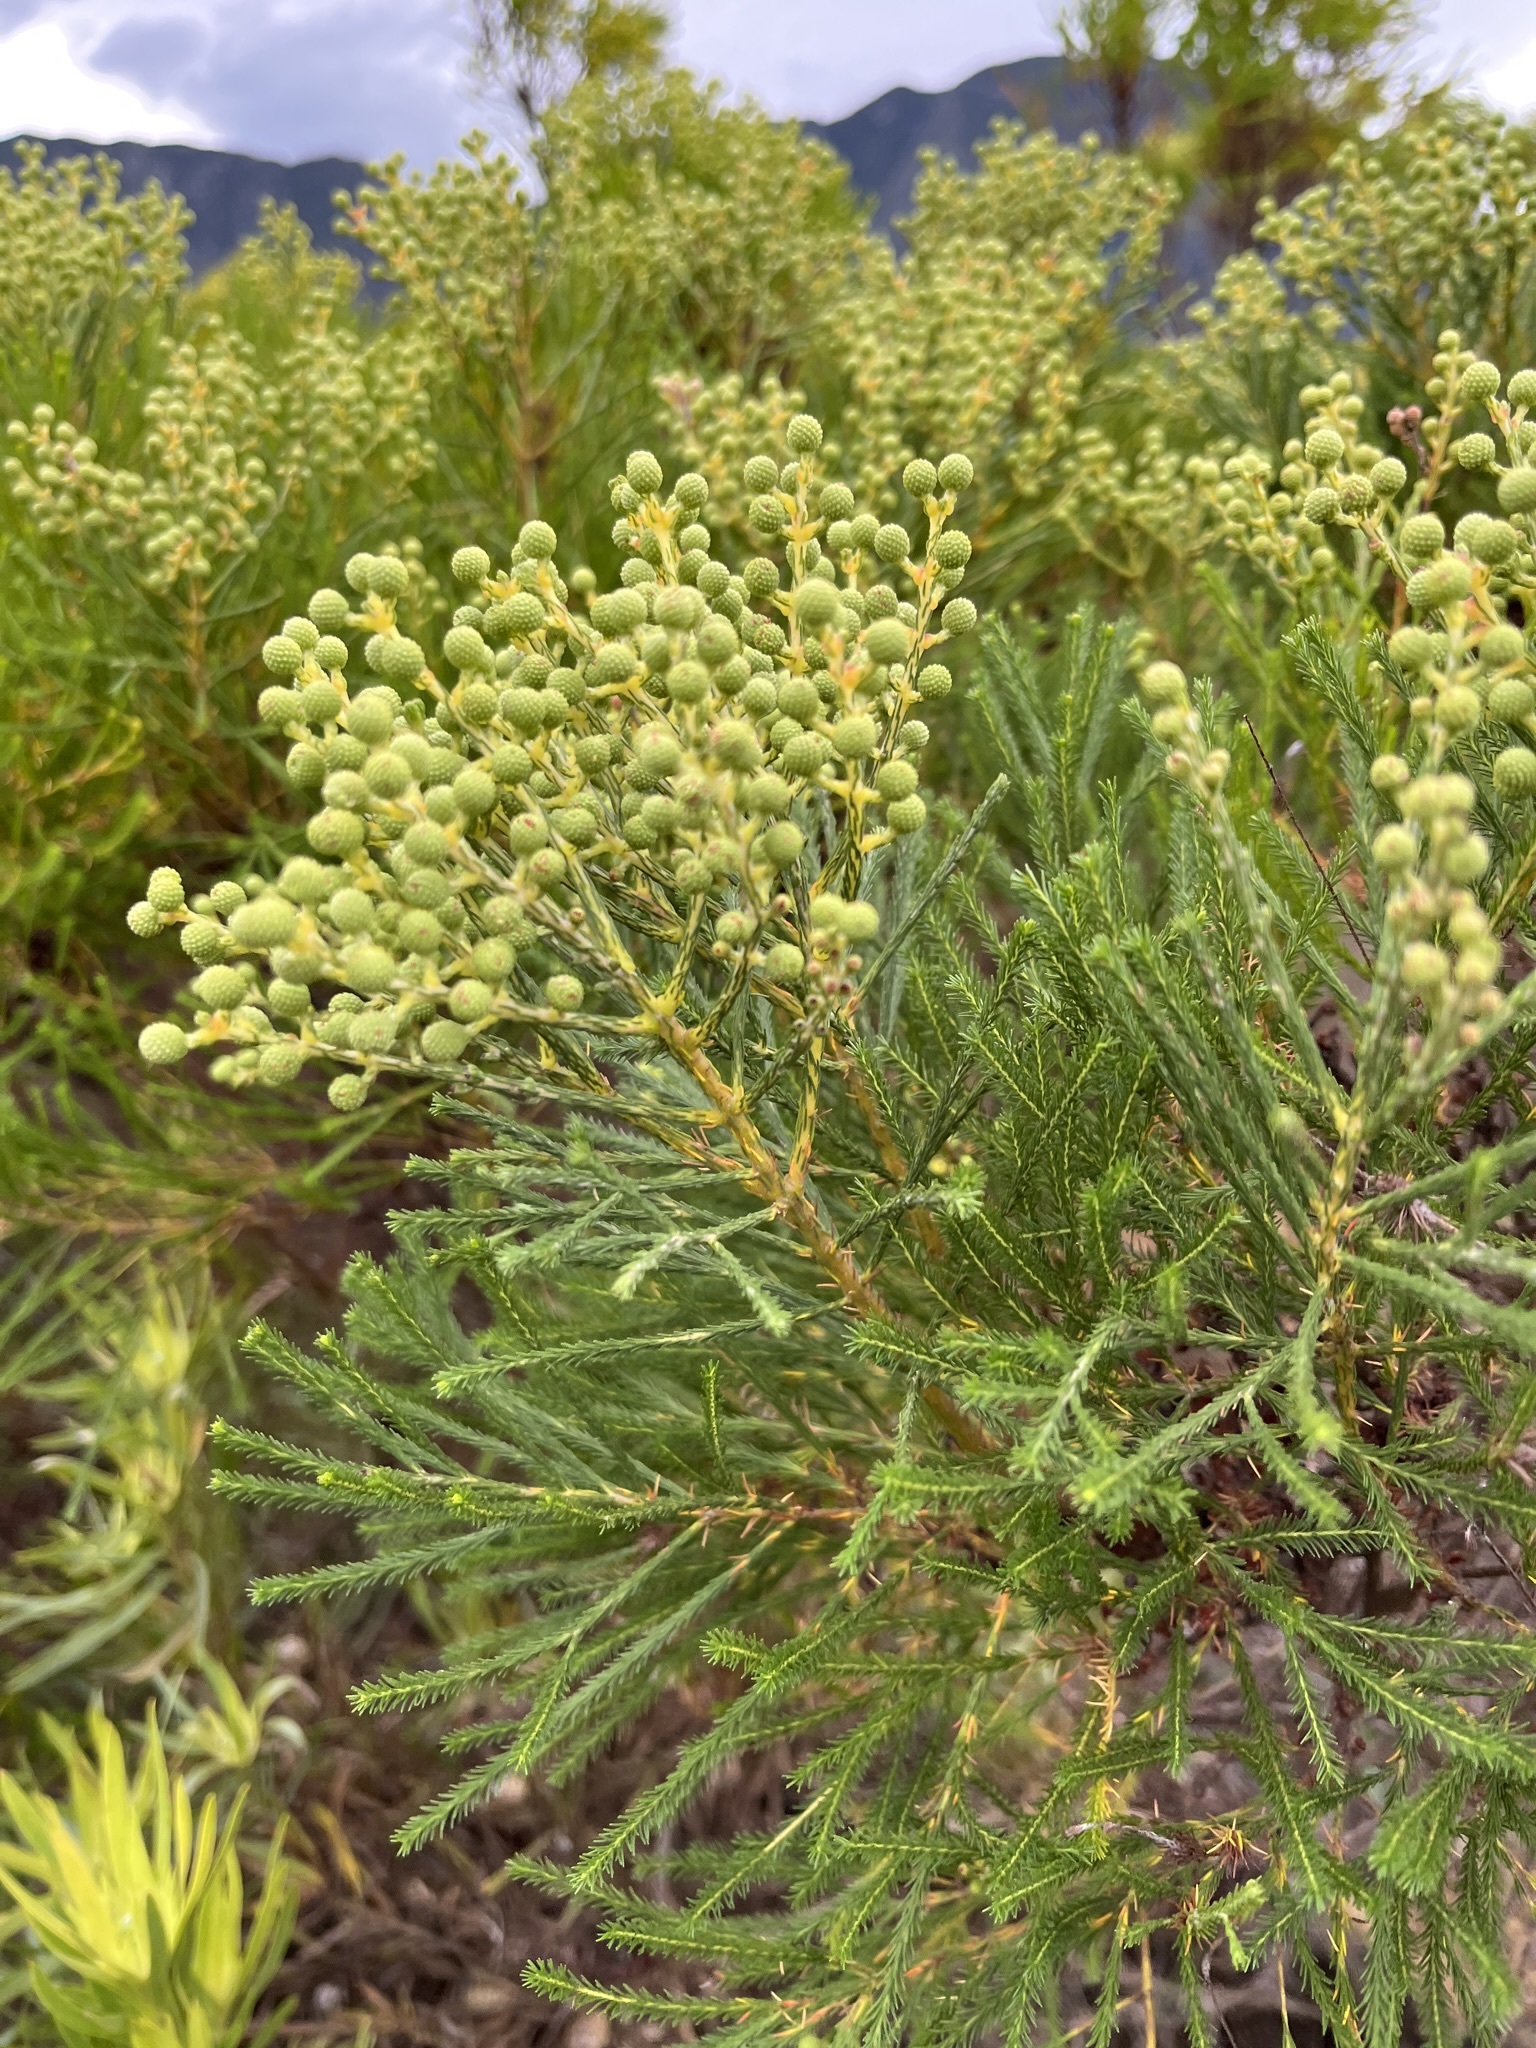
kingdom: Plantae
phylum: Tracheophyta
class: Magnoliopsida
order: Bruniales
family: Bruniaceae
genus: Berzelia
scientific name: Berzelia lanuginosa
